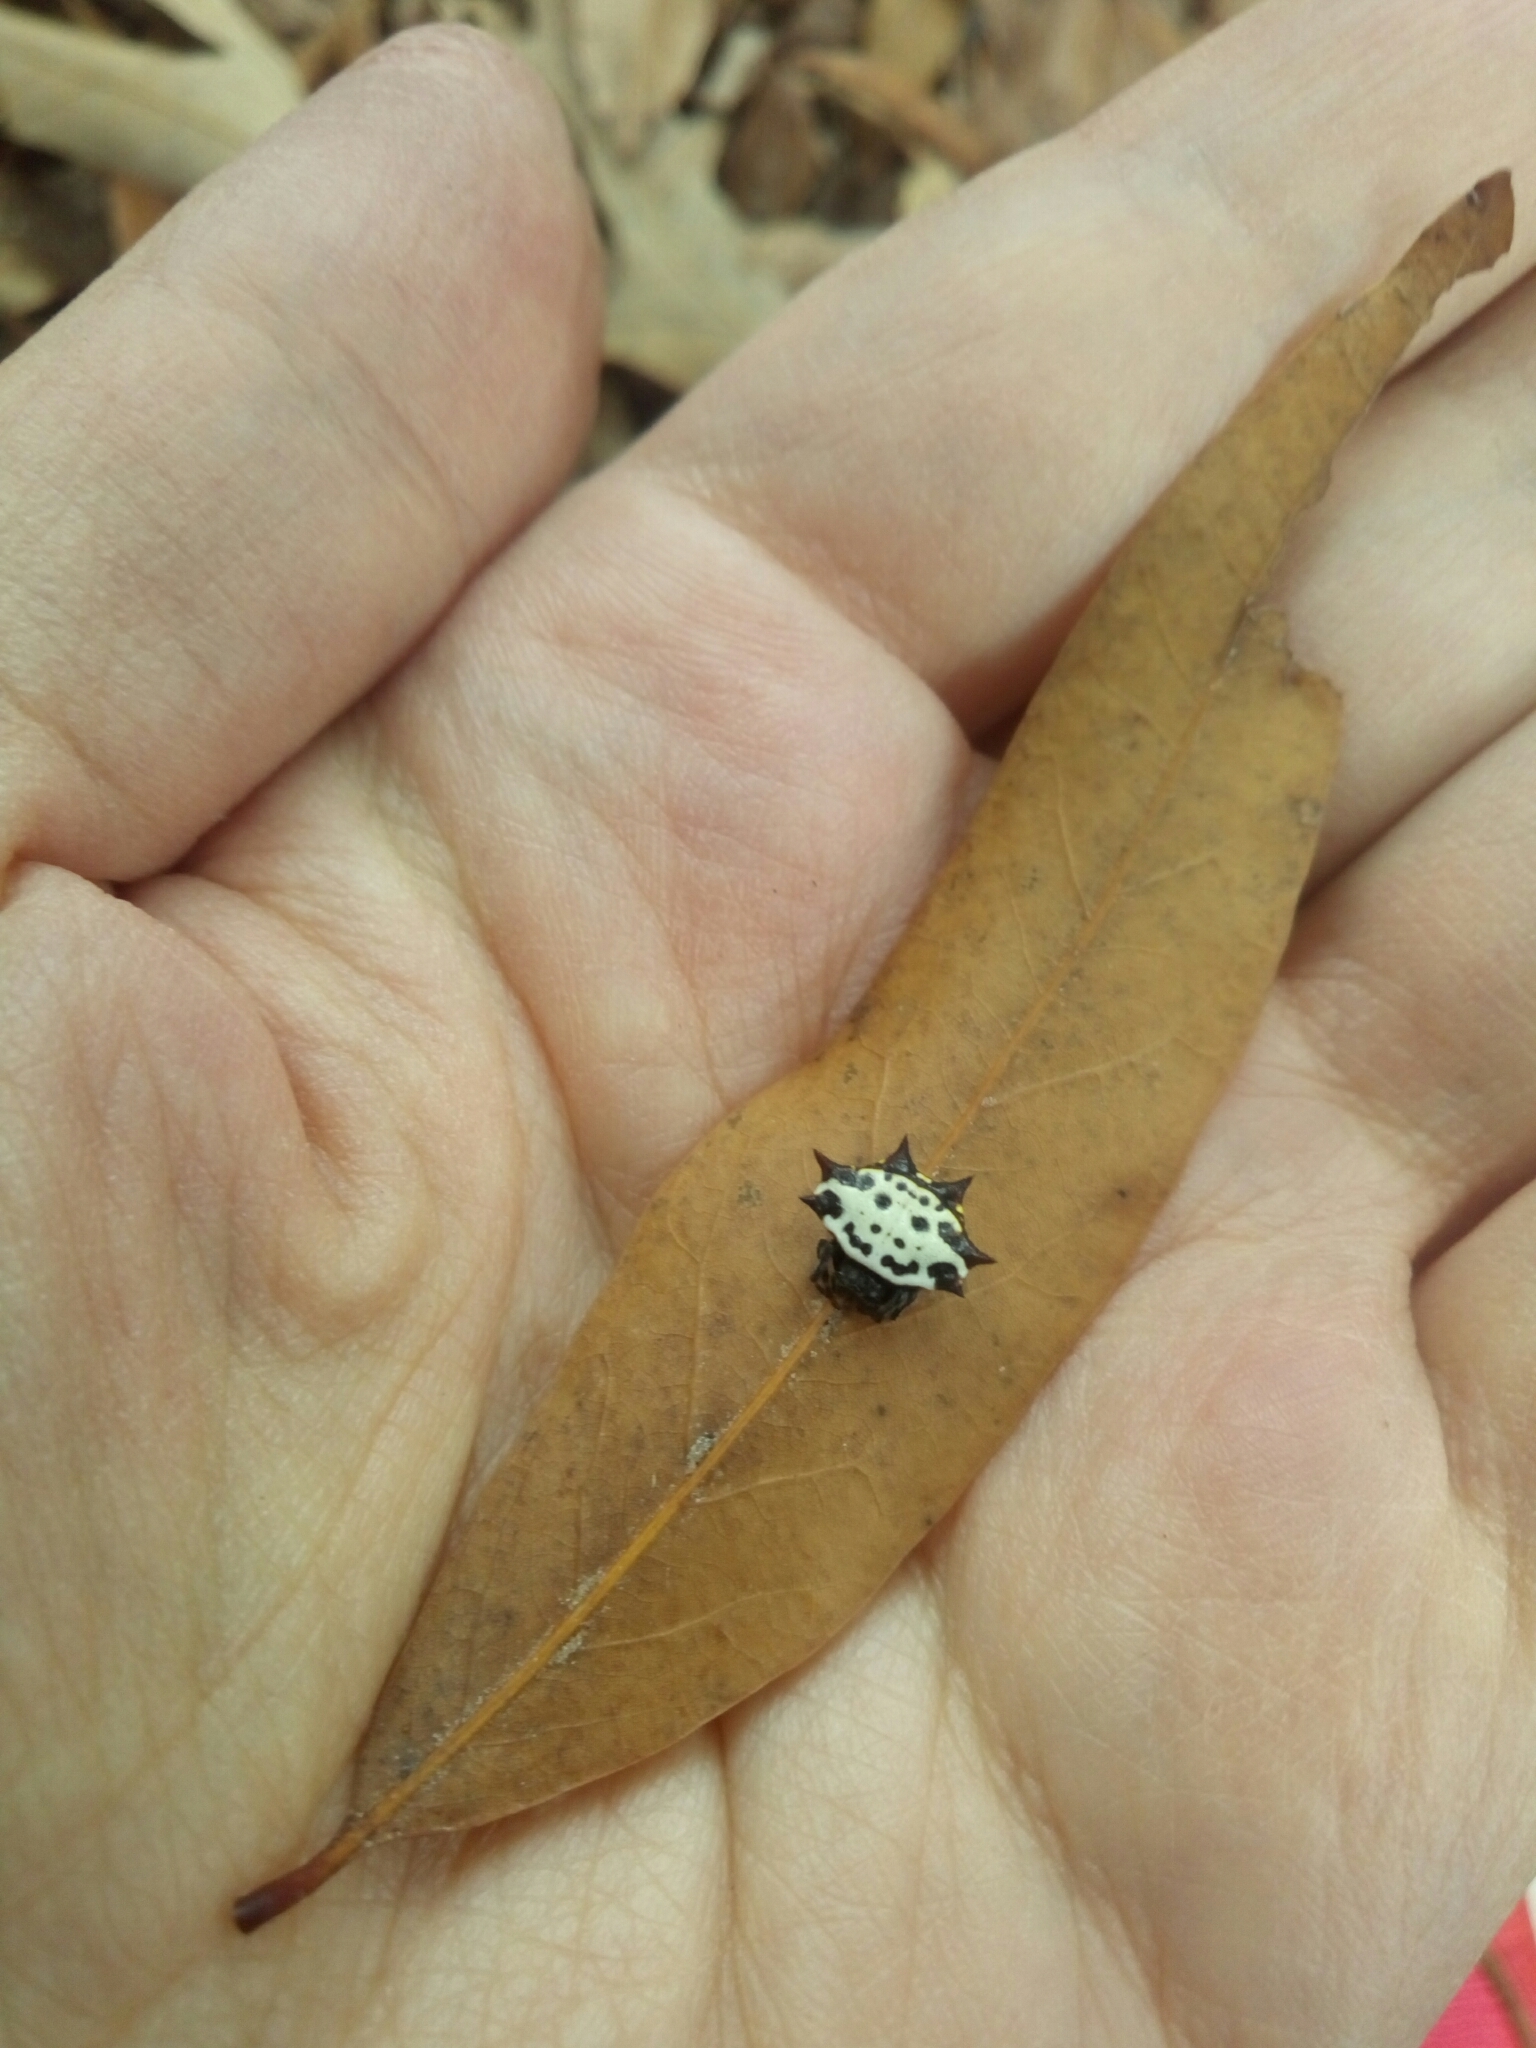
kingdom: Animalia
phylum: Arthropoda
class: Arachnida
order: Araneae
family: Araneidae
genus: Gasteracantha
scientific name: Gasteracantha cancriformis
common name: Orb weavers
